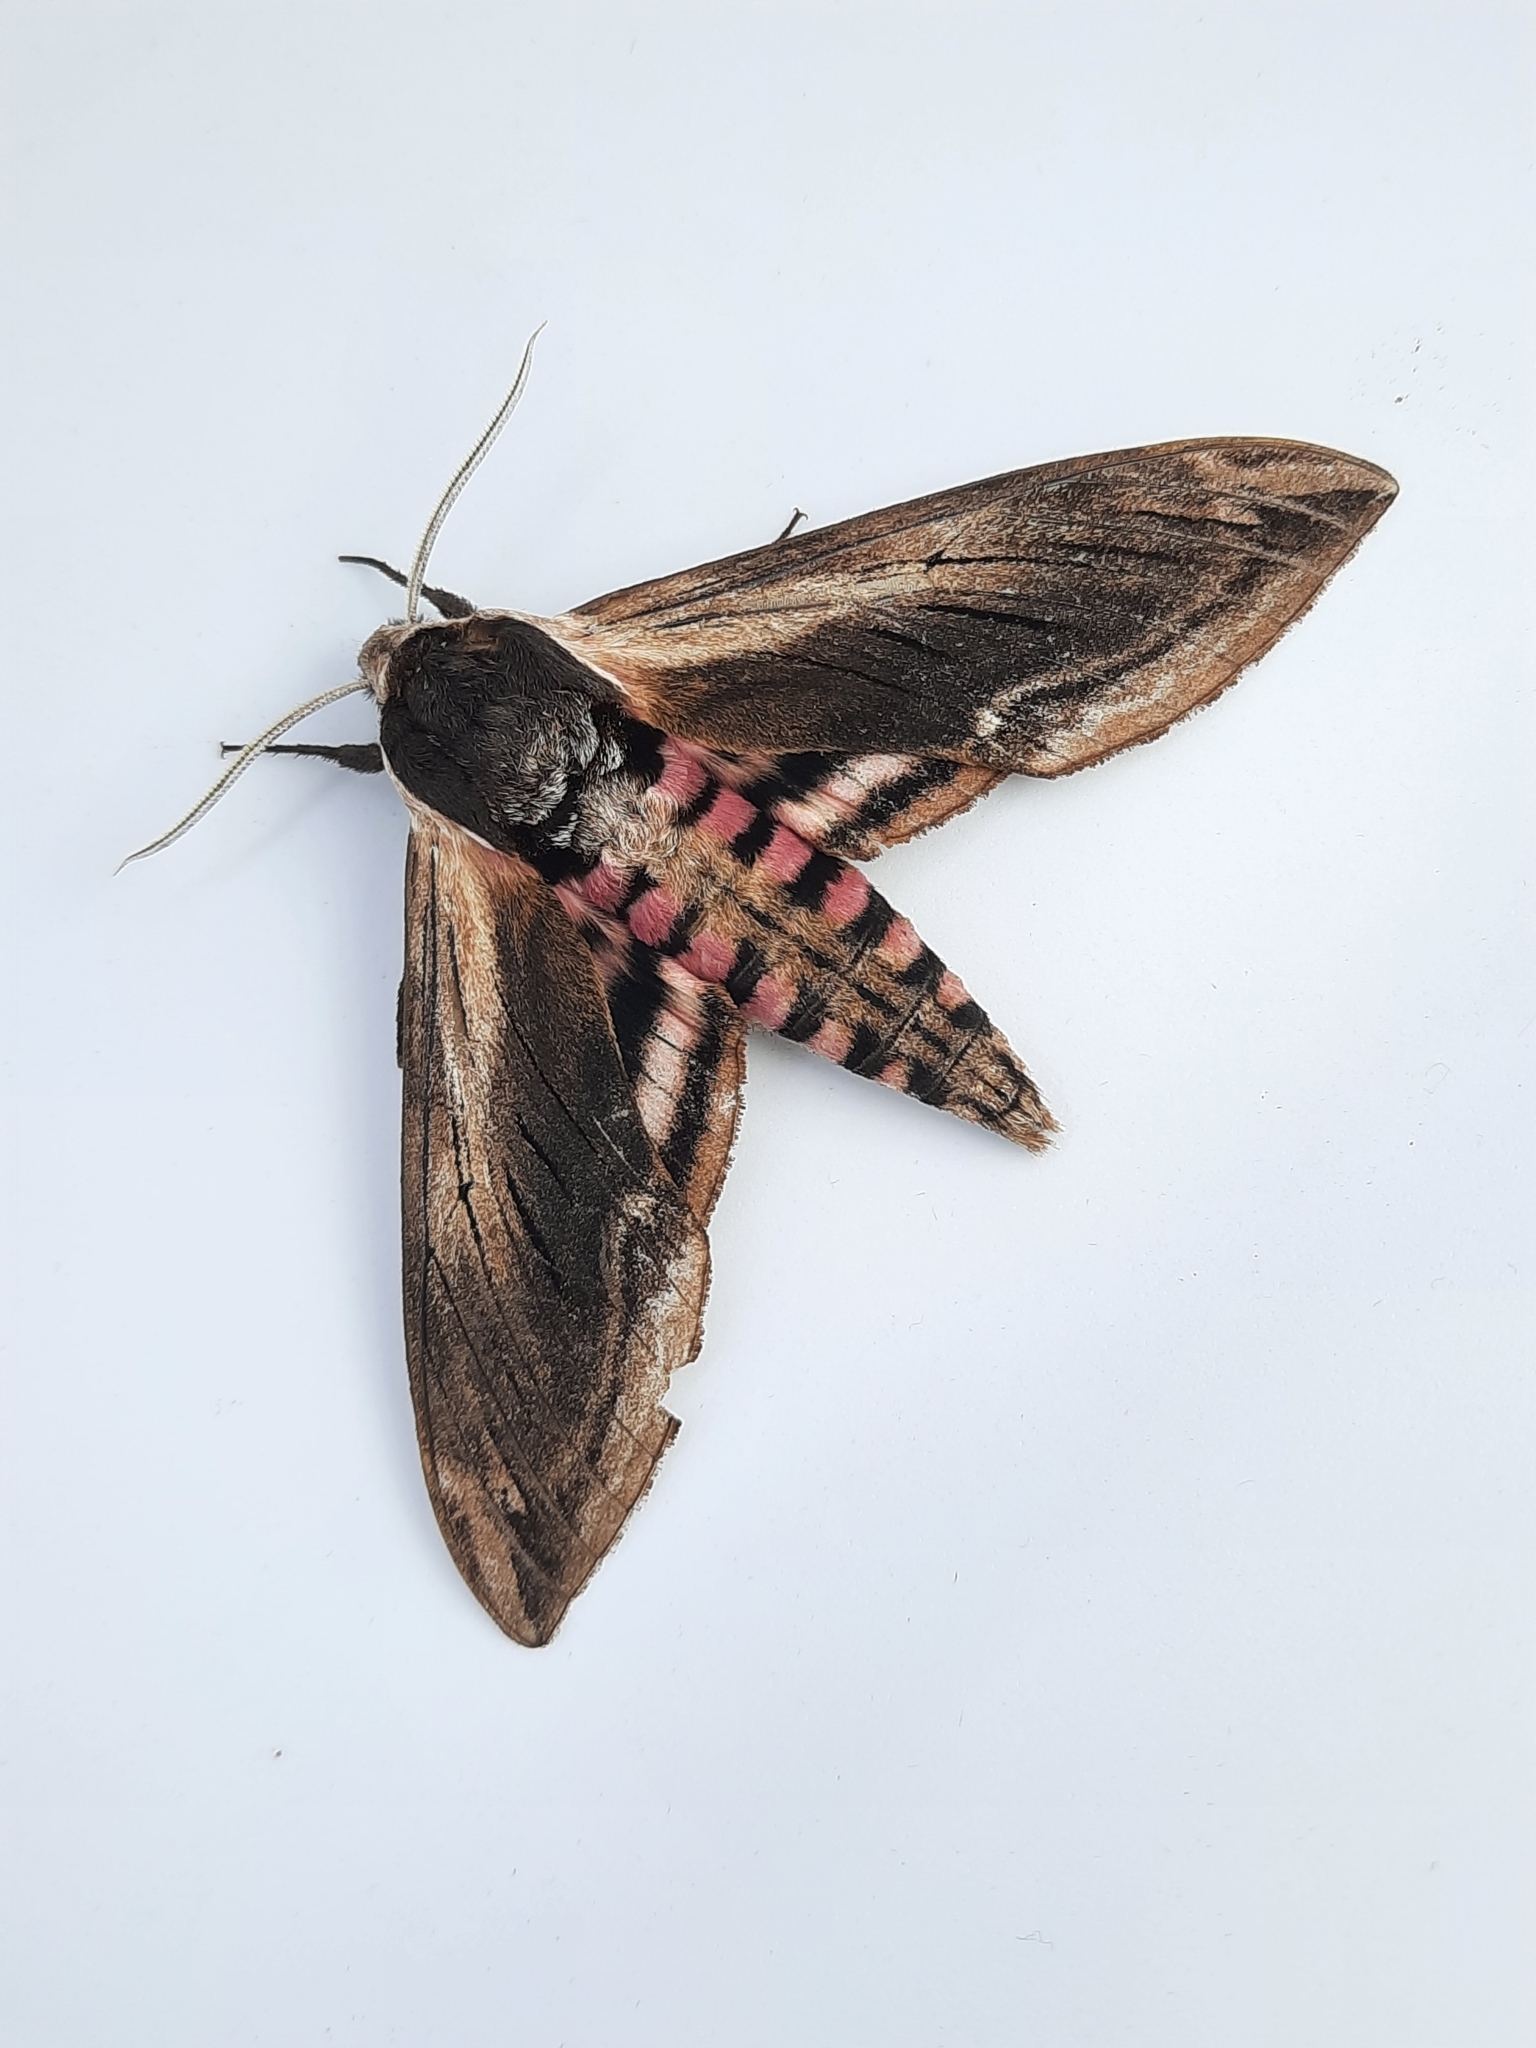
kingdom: Animalia
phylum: Arthropoda
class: Insecta
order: Lepidoptera
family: Sphingidae
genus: Sphinx
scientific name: Sphinx ligustri
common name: Privet hawk-moth
